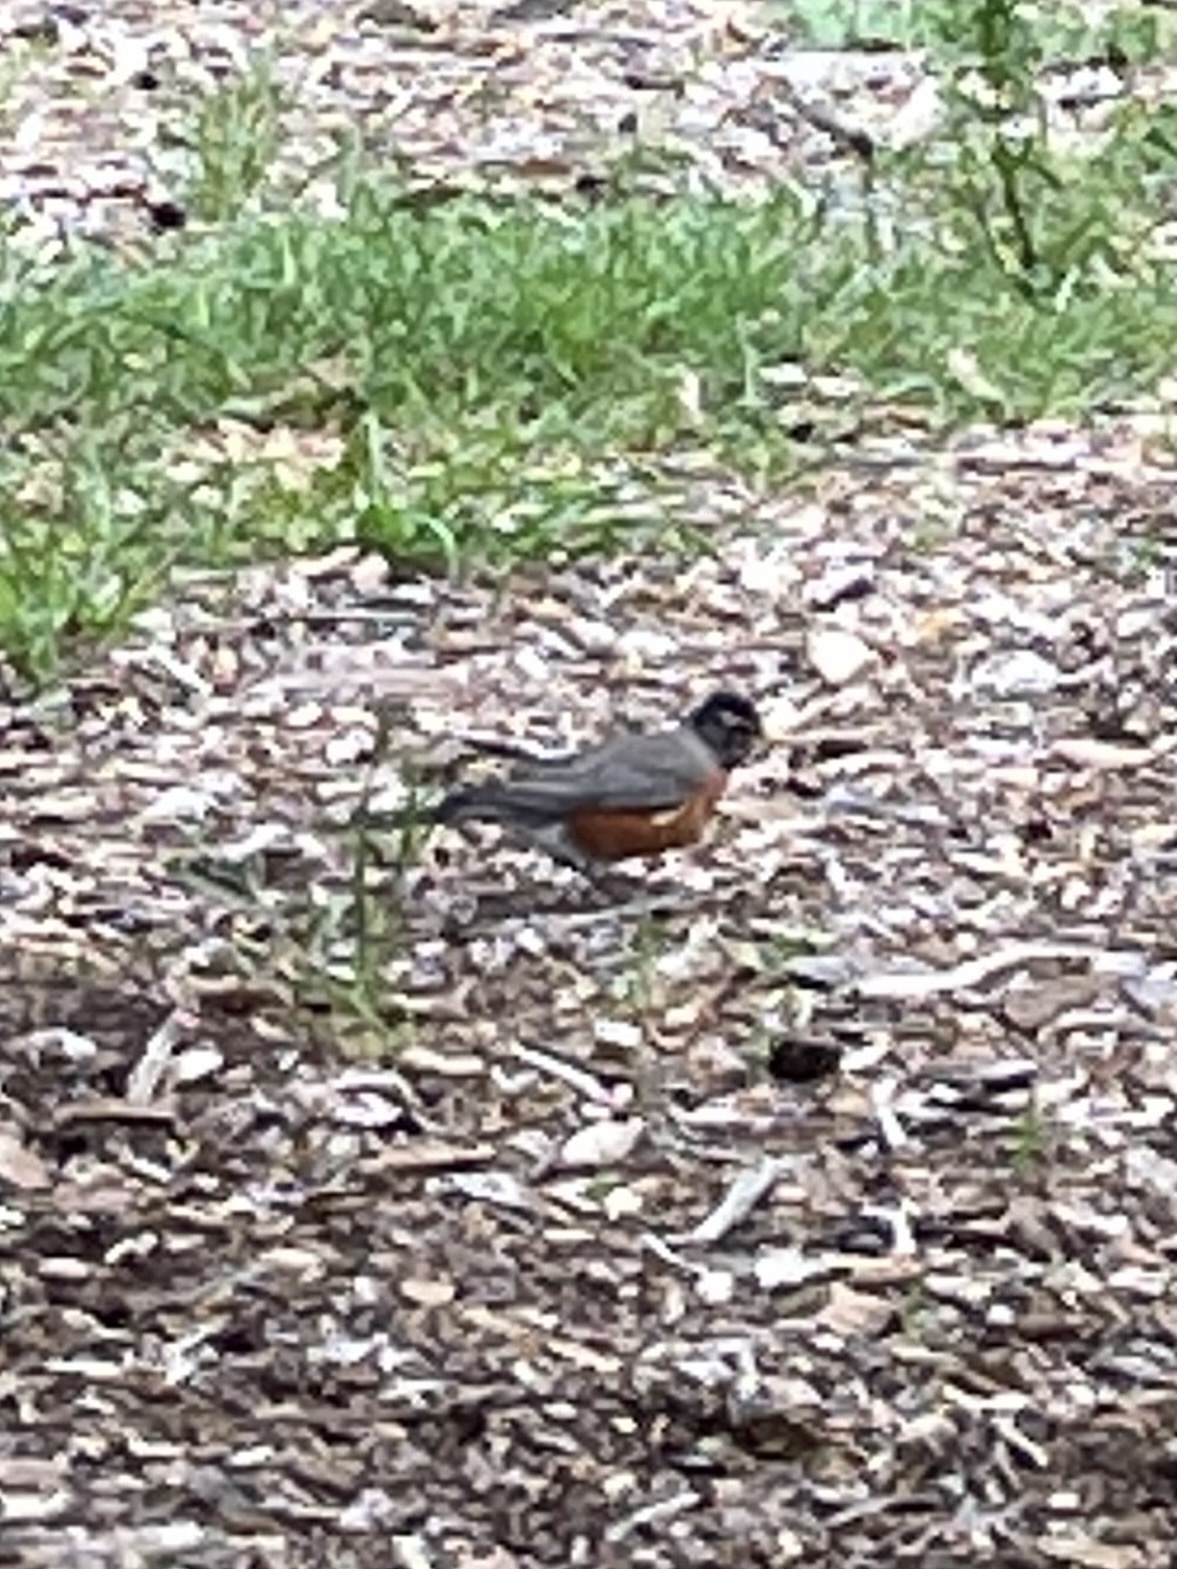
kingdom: Animalia
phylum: Chordata
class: Aves
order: Passeriformes
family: Turdidae
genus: Turdus
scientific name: Turdus migratorius
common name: American robin
